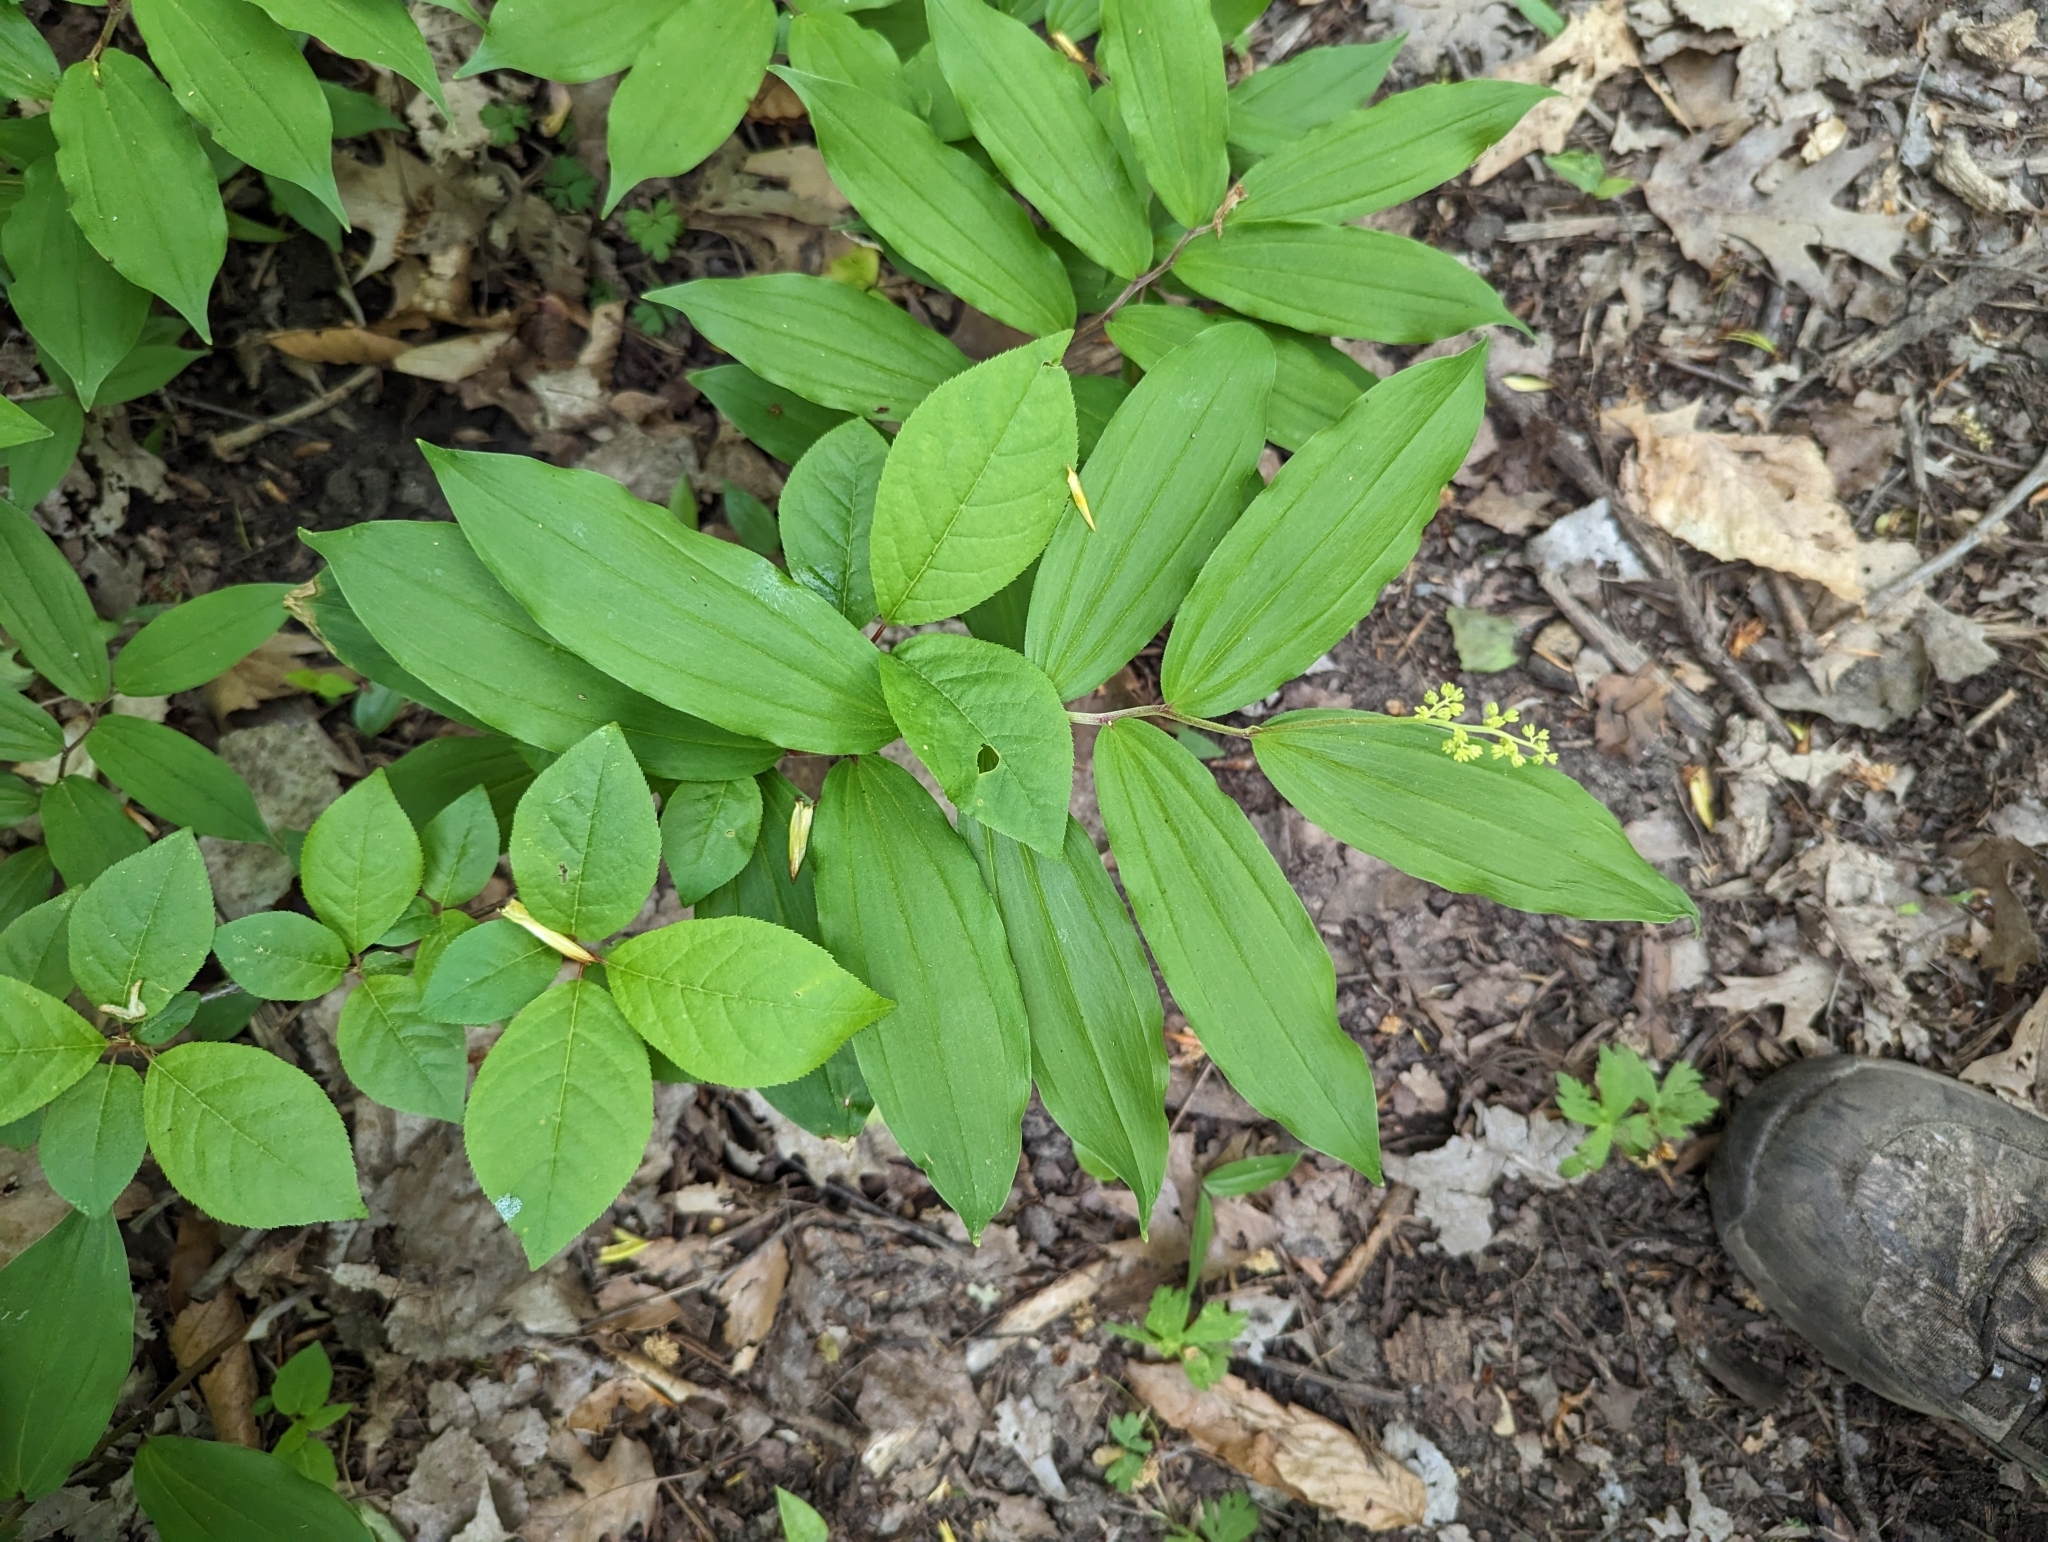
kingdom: Plantae
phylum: Tracheophyta
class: Liliopsida
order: Asparagales
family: Asparagaceae
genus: Maianthemum
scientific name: Maianthemum racemosum
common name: False spikenard
